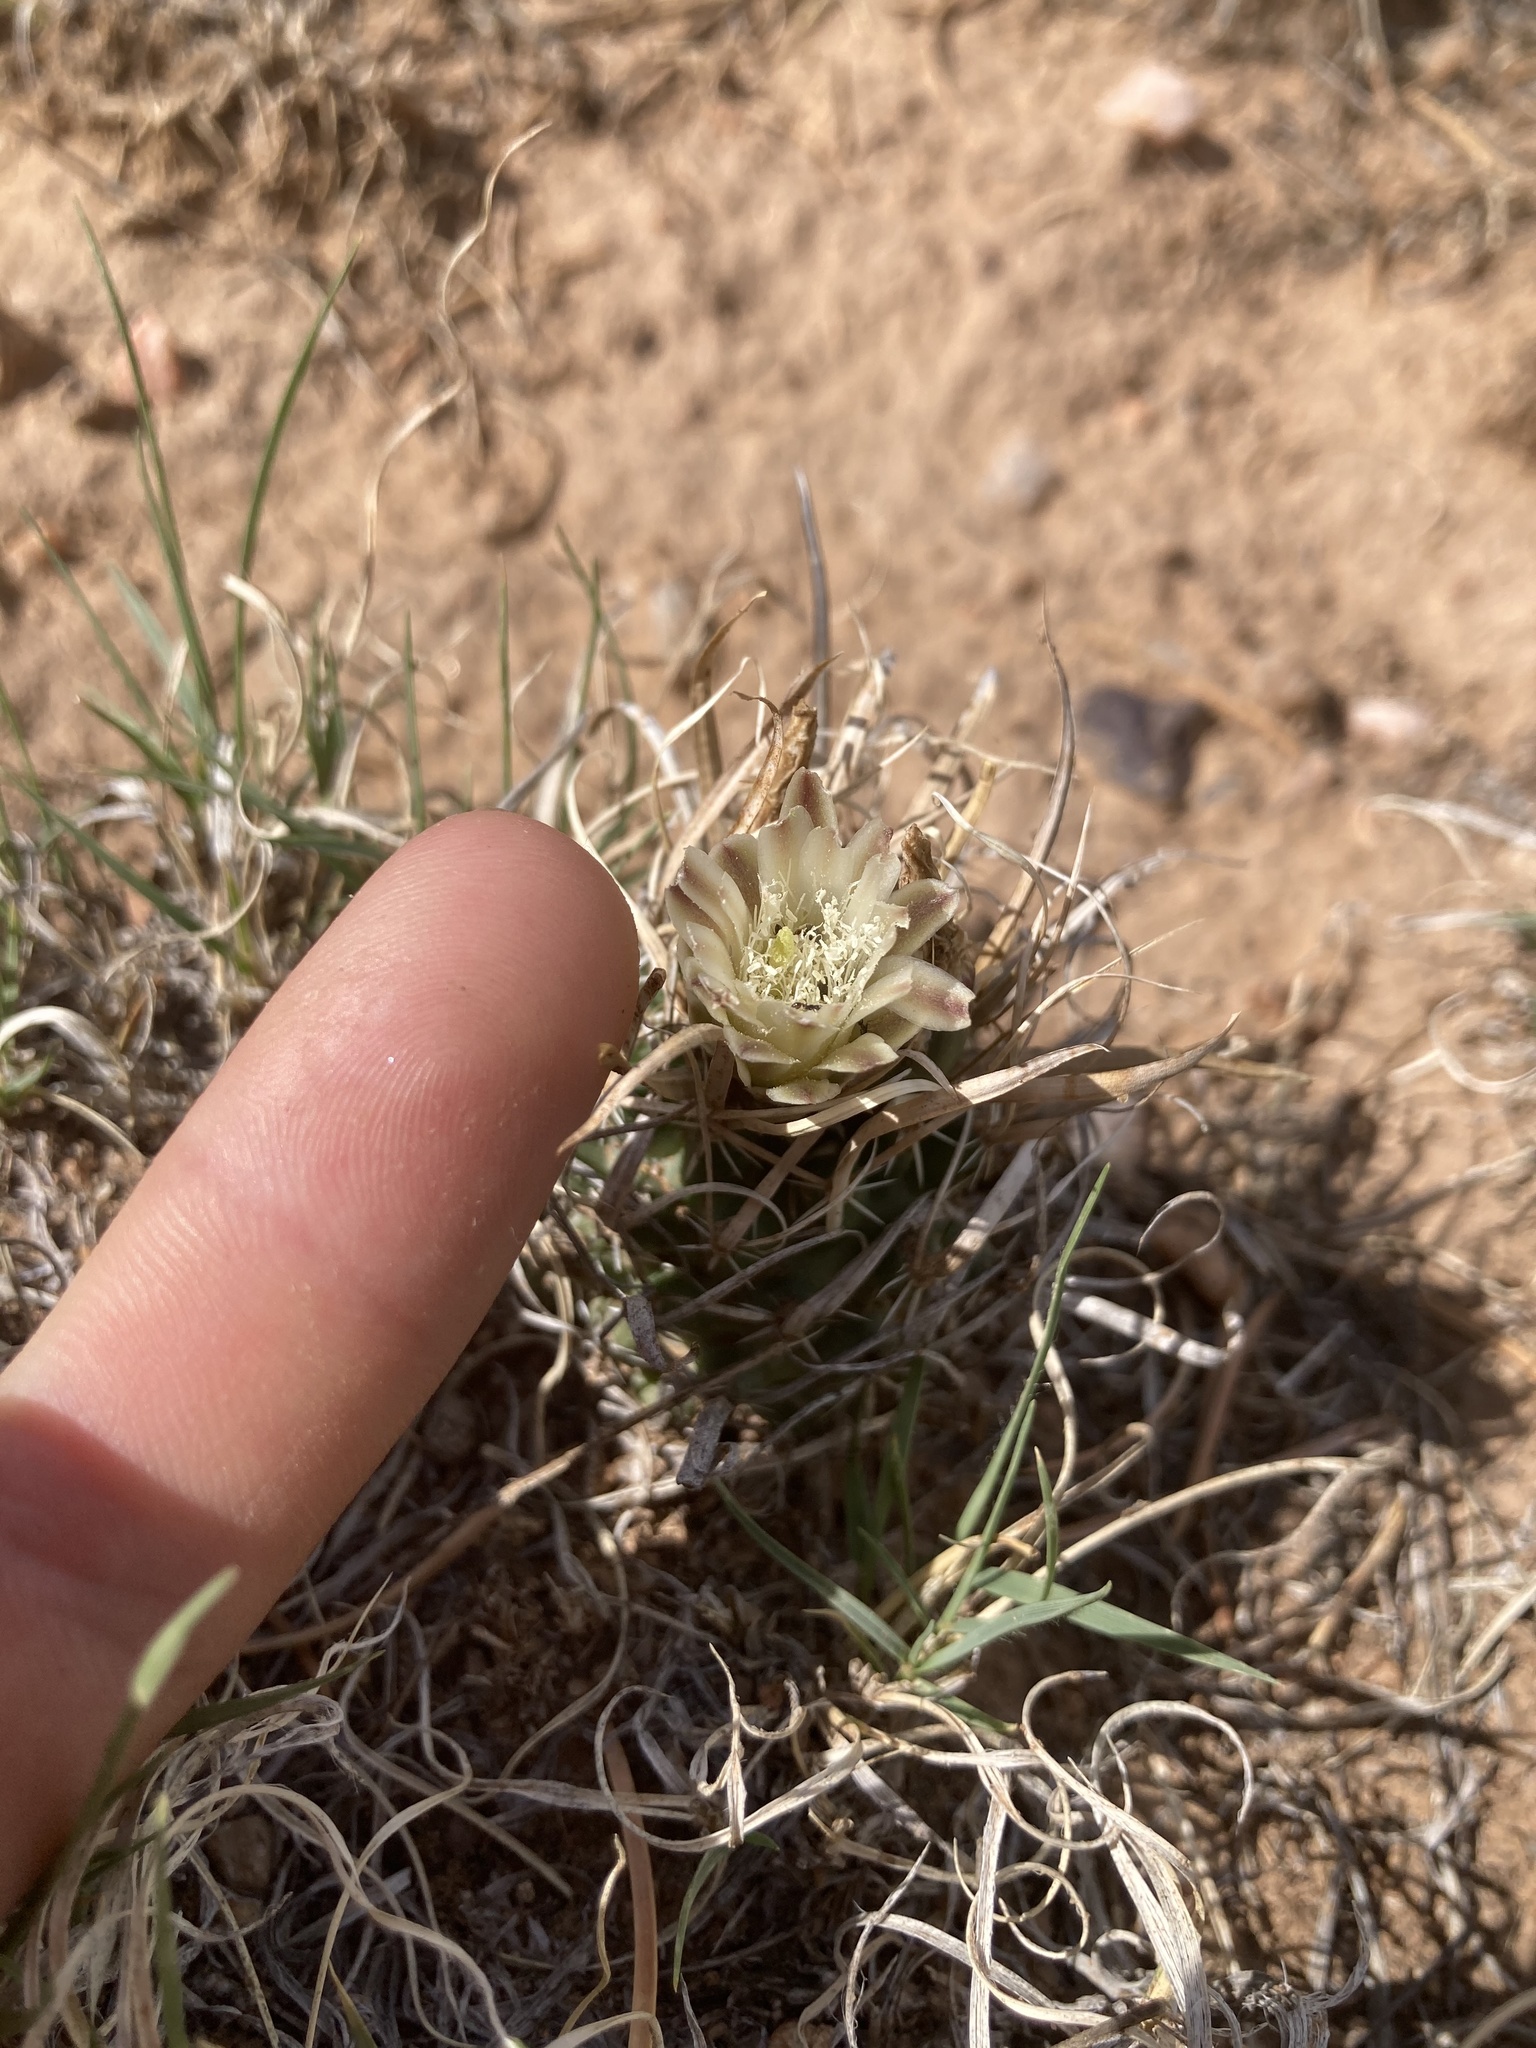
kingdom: Plantae
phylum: Tracheophyta
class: Magnoliopsida
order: Caryophyllales
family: Cactaceae
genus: Sclerocactus
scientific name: Sclerocactus papyracanthus
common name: Grama grass cactus
